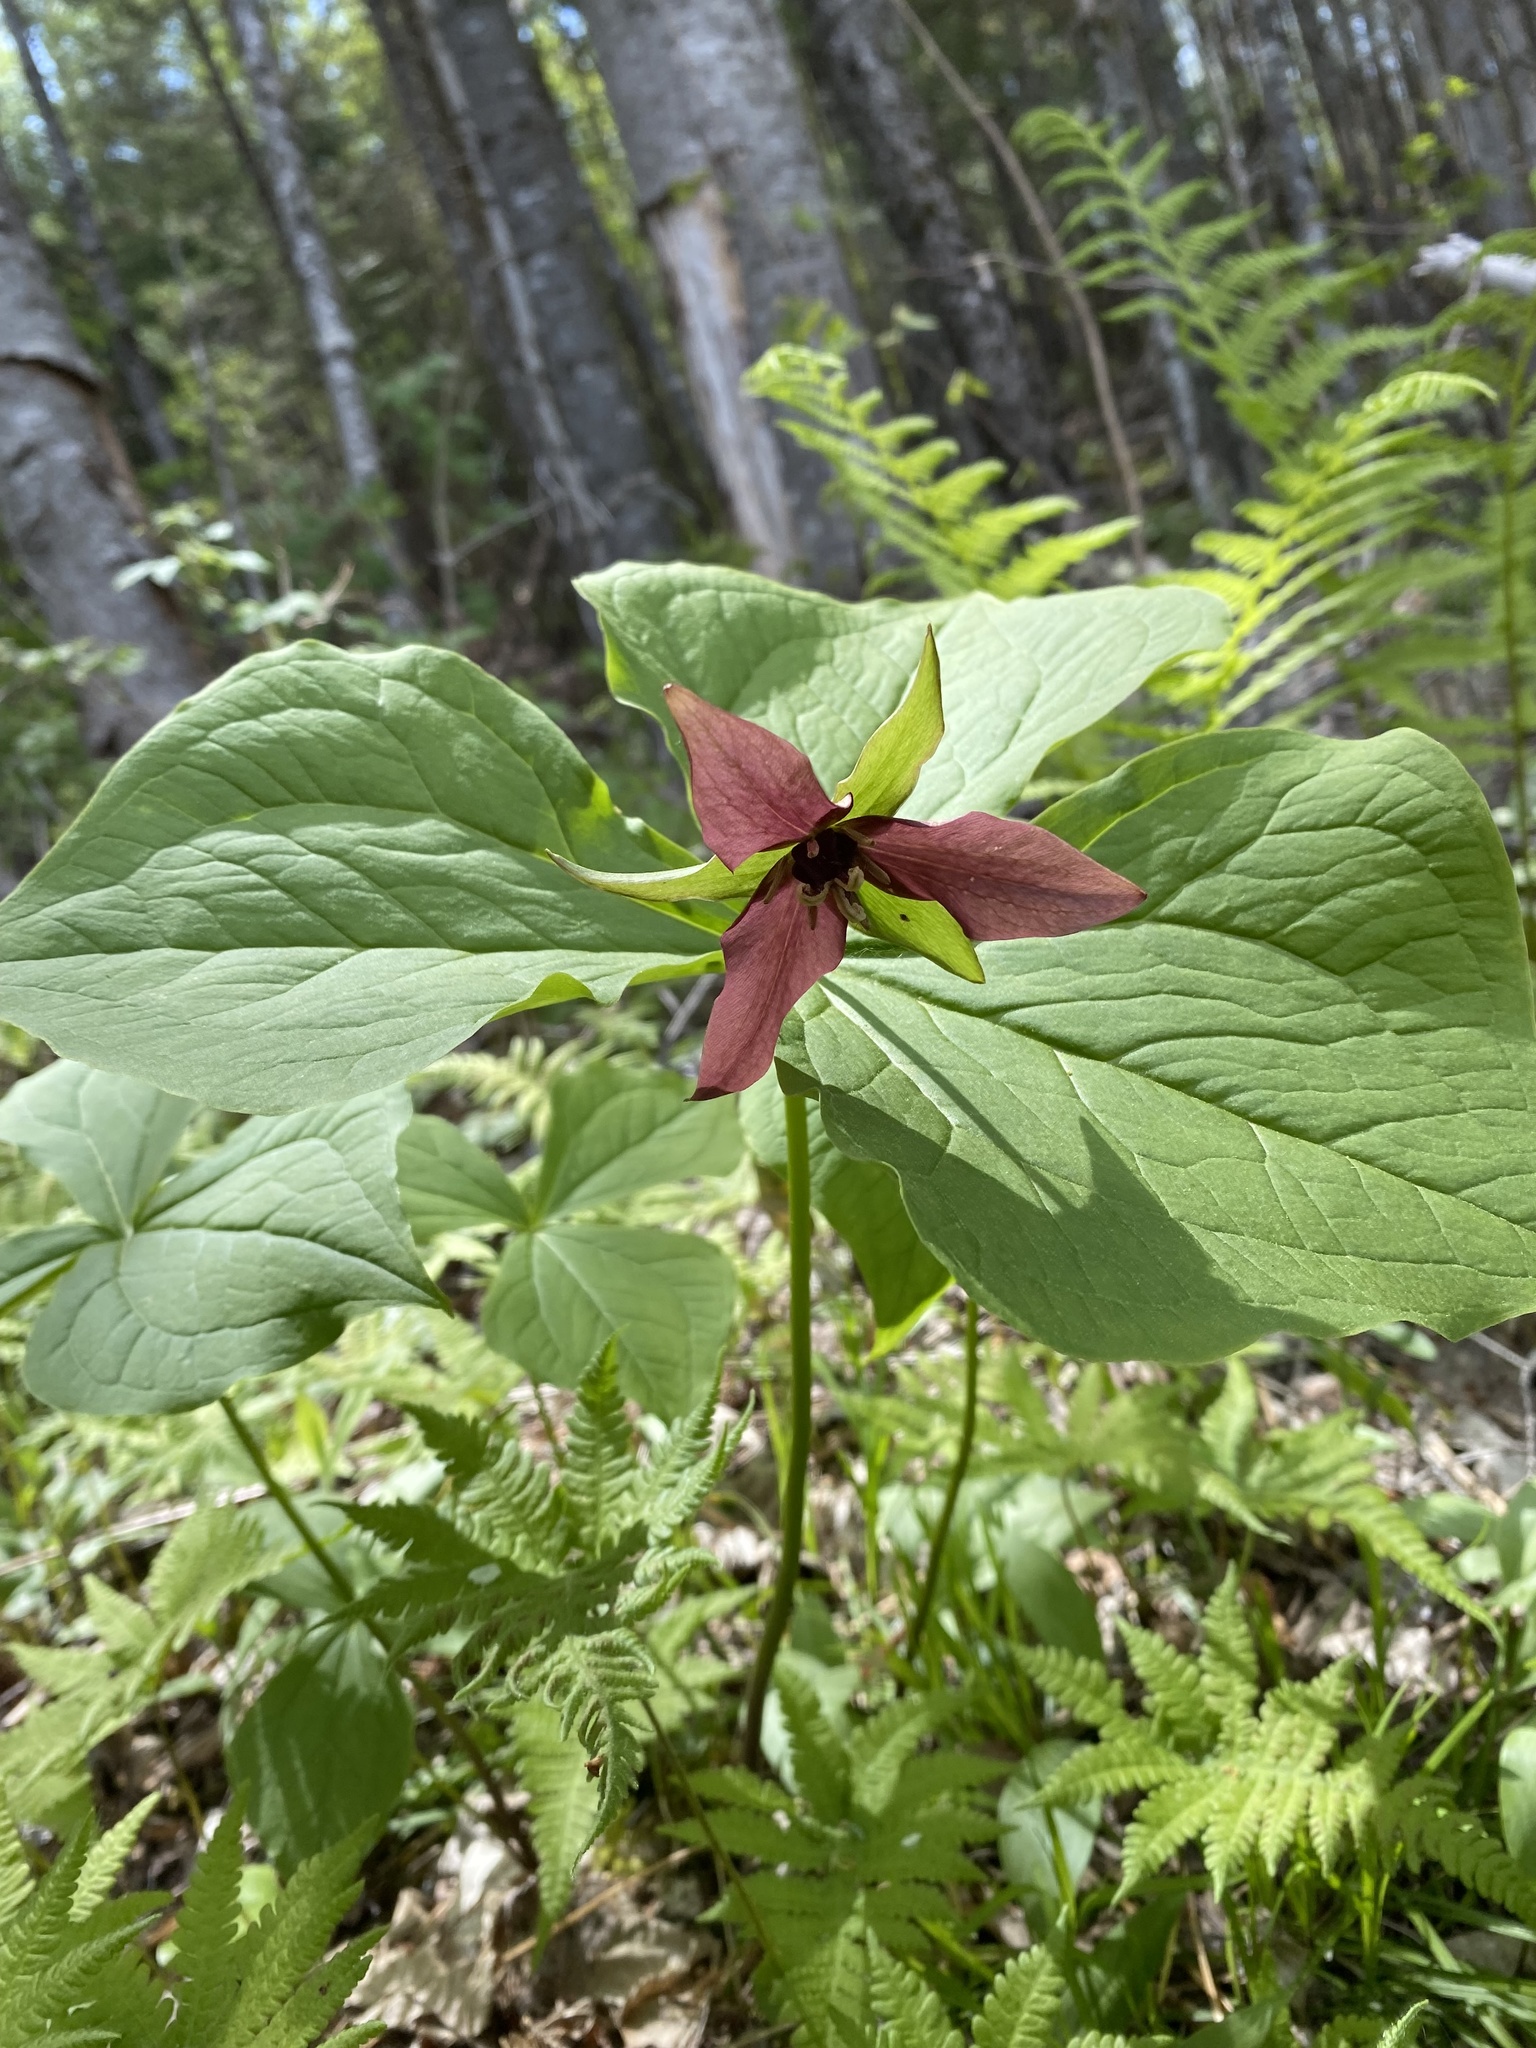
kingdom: Plantae
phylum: Tracheophyta
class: Liliopsida
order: Liliales
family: Melanthiaceae
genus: Trillium
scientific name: Trillium erectum
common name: Purple trillium
